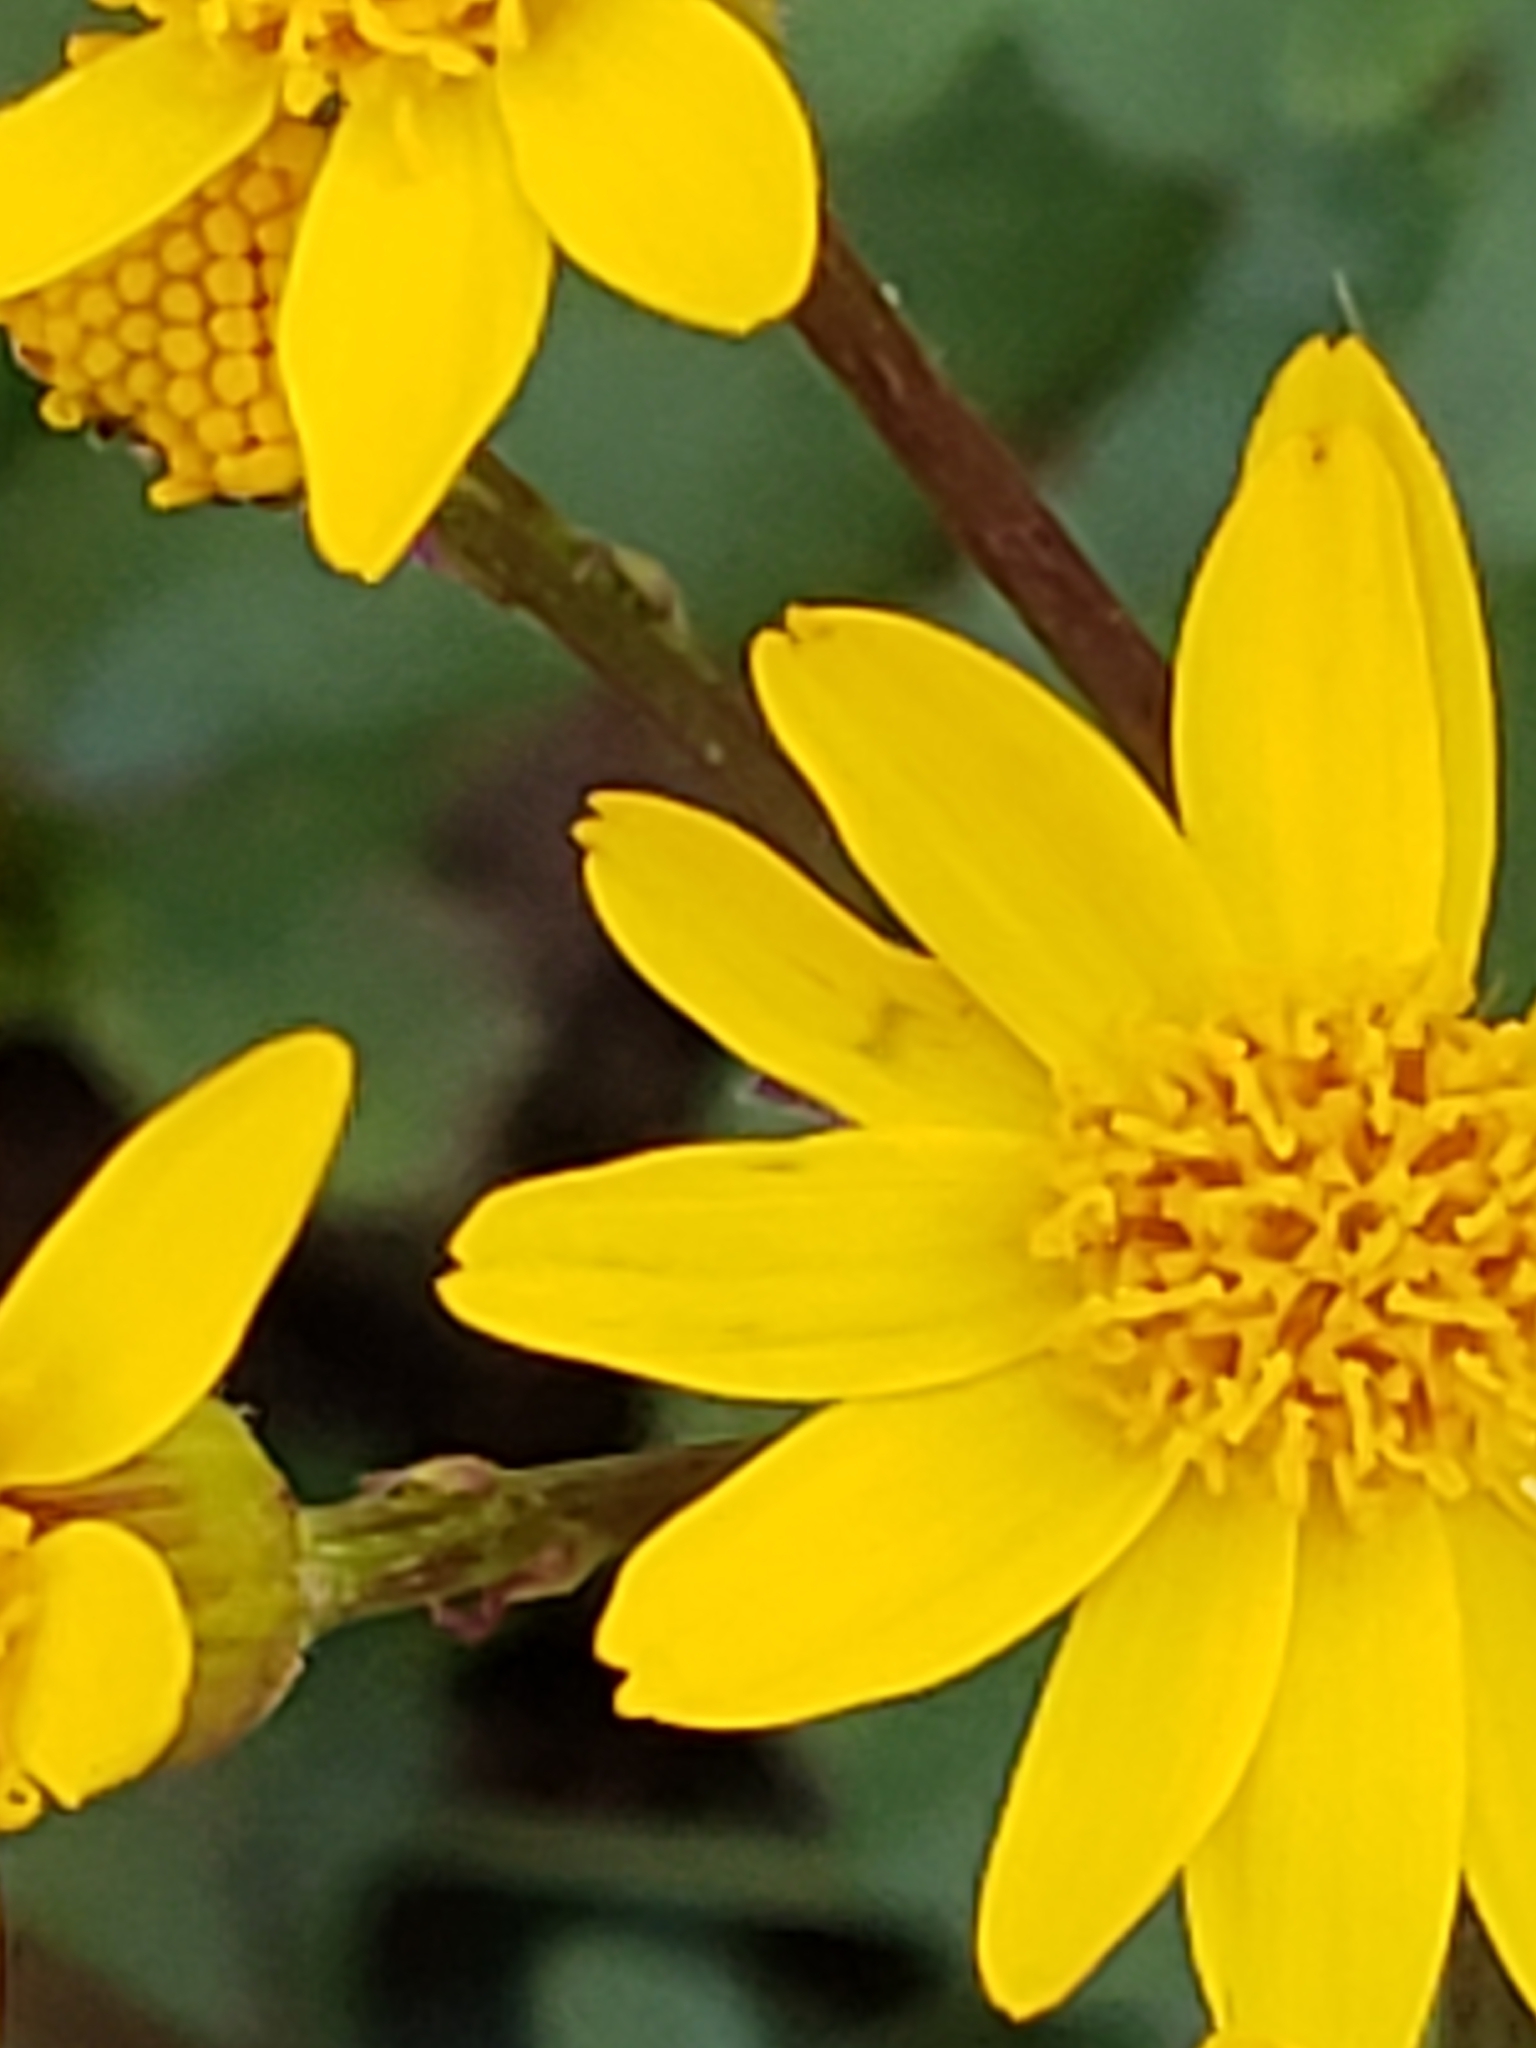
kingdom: Plantae
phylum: Tracheophyta
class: Magnoliopsida
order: Asterales
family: Asteraceae
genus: Packera
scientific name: Packera aurea
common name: Golden groundsel
